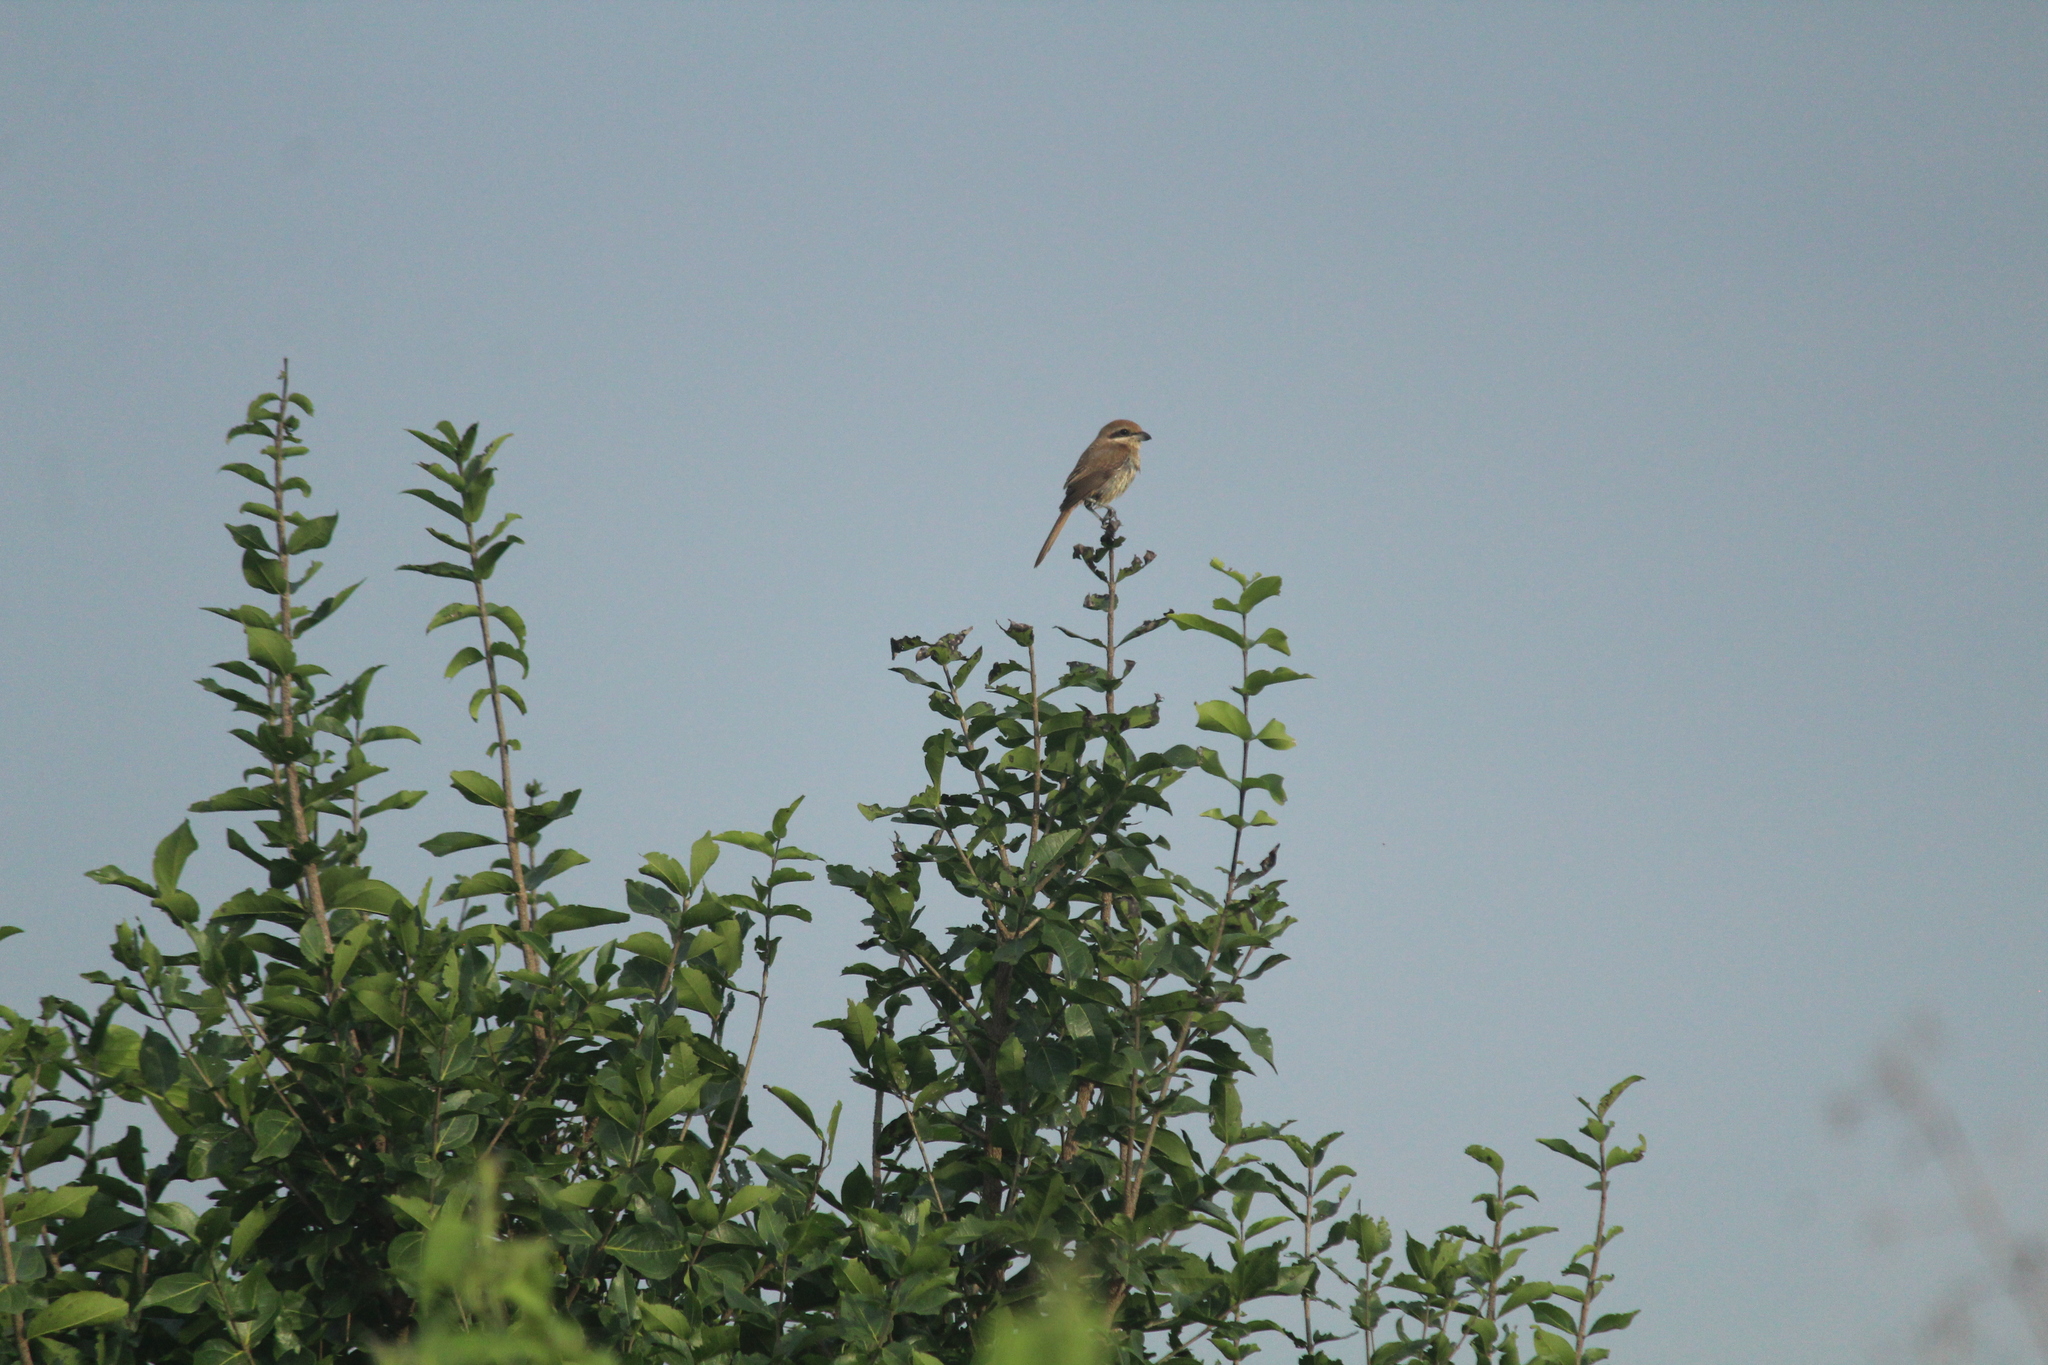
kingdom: Animalia
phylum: Chordata
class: Aves
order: Passeriformes
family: Laniidae
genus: Lanius
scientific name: Lanius cristatus
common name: Brown shrike
